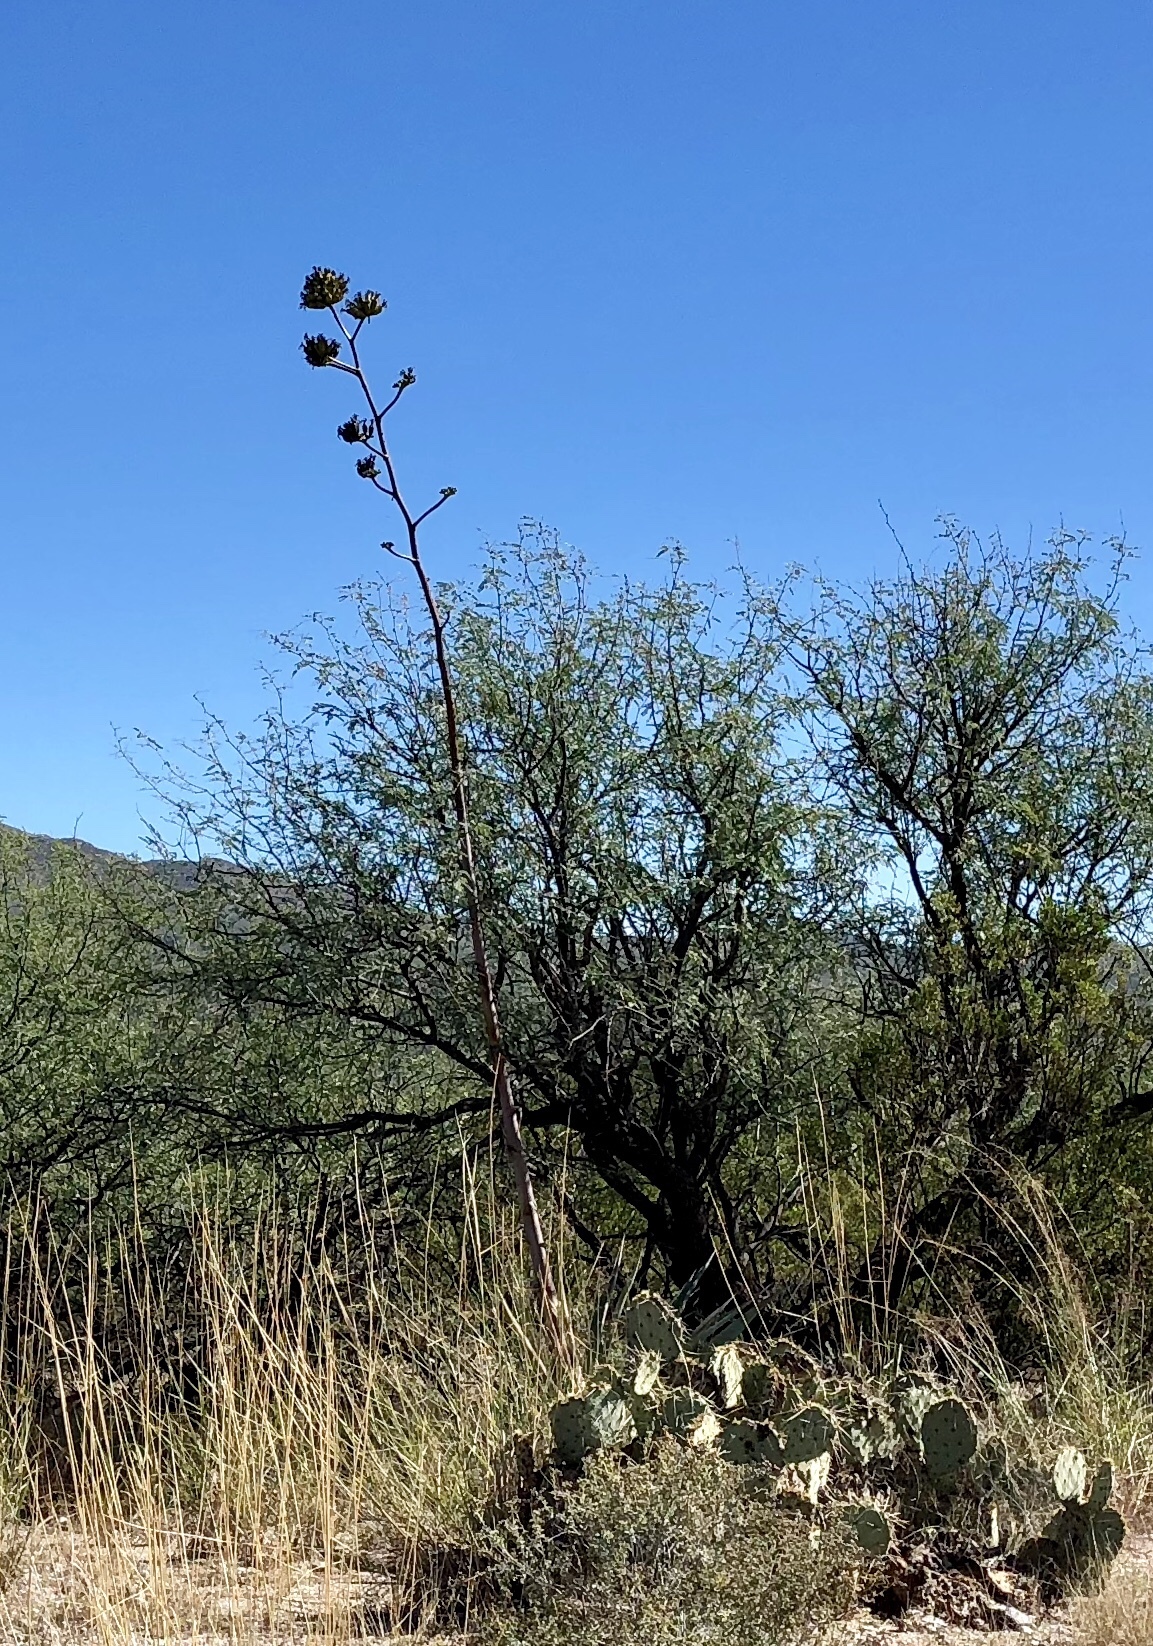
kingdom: Plantae
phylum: Tracheophyta
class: Liliopsida
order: Asparagales
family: Asparagaceae
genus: Agave
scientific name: Agave palmeri
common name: Palmer agave
